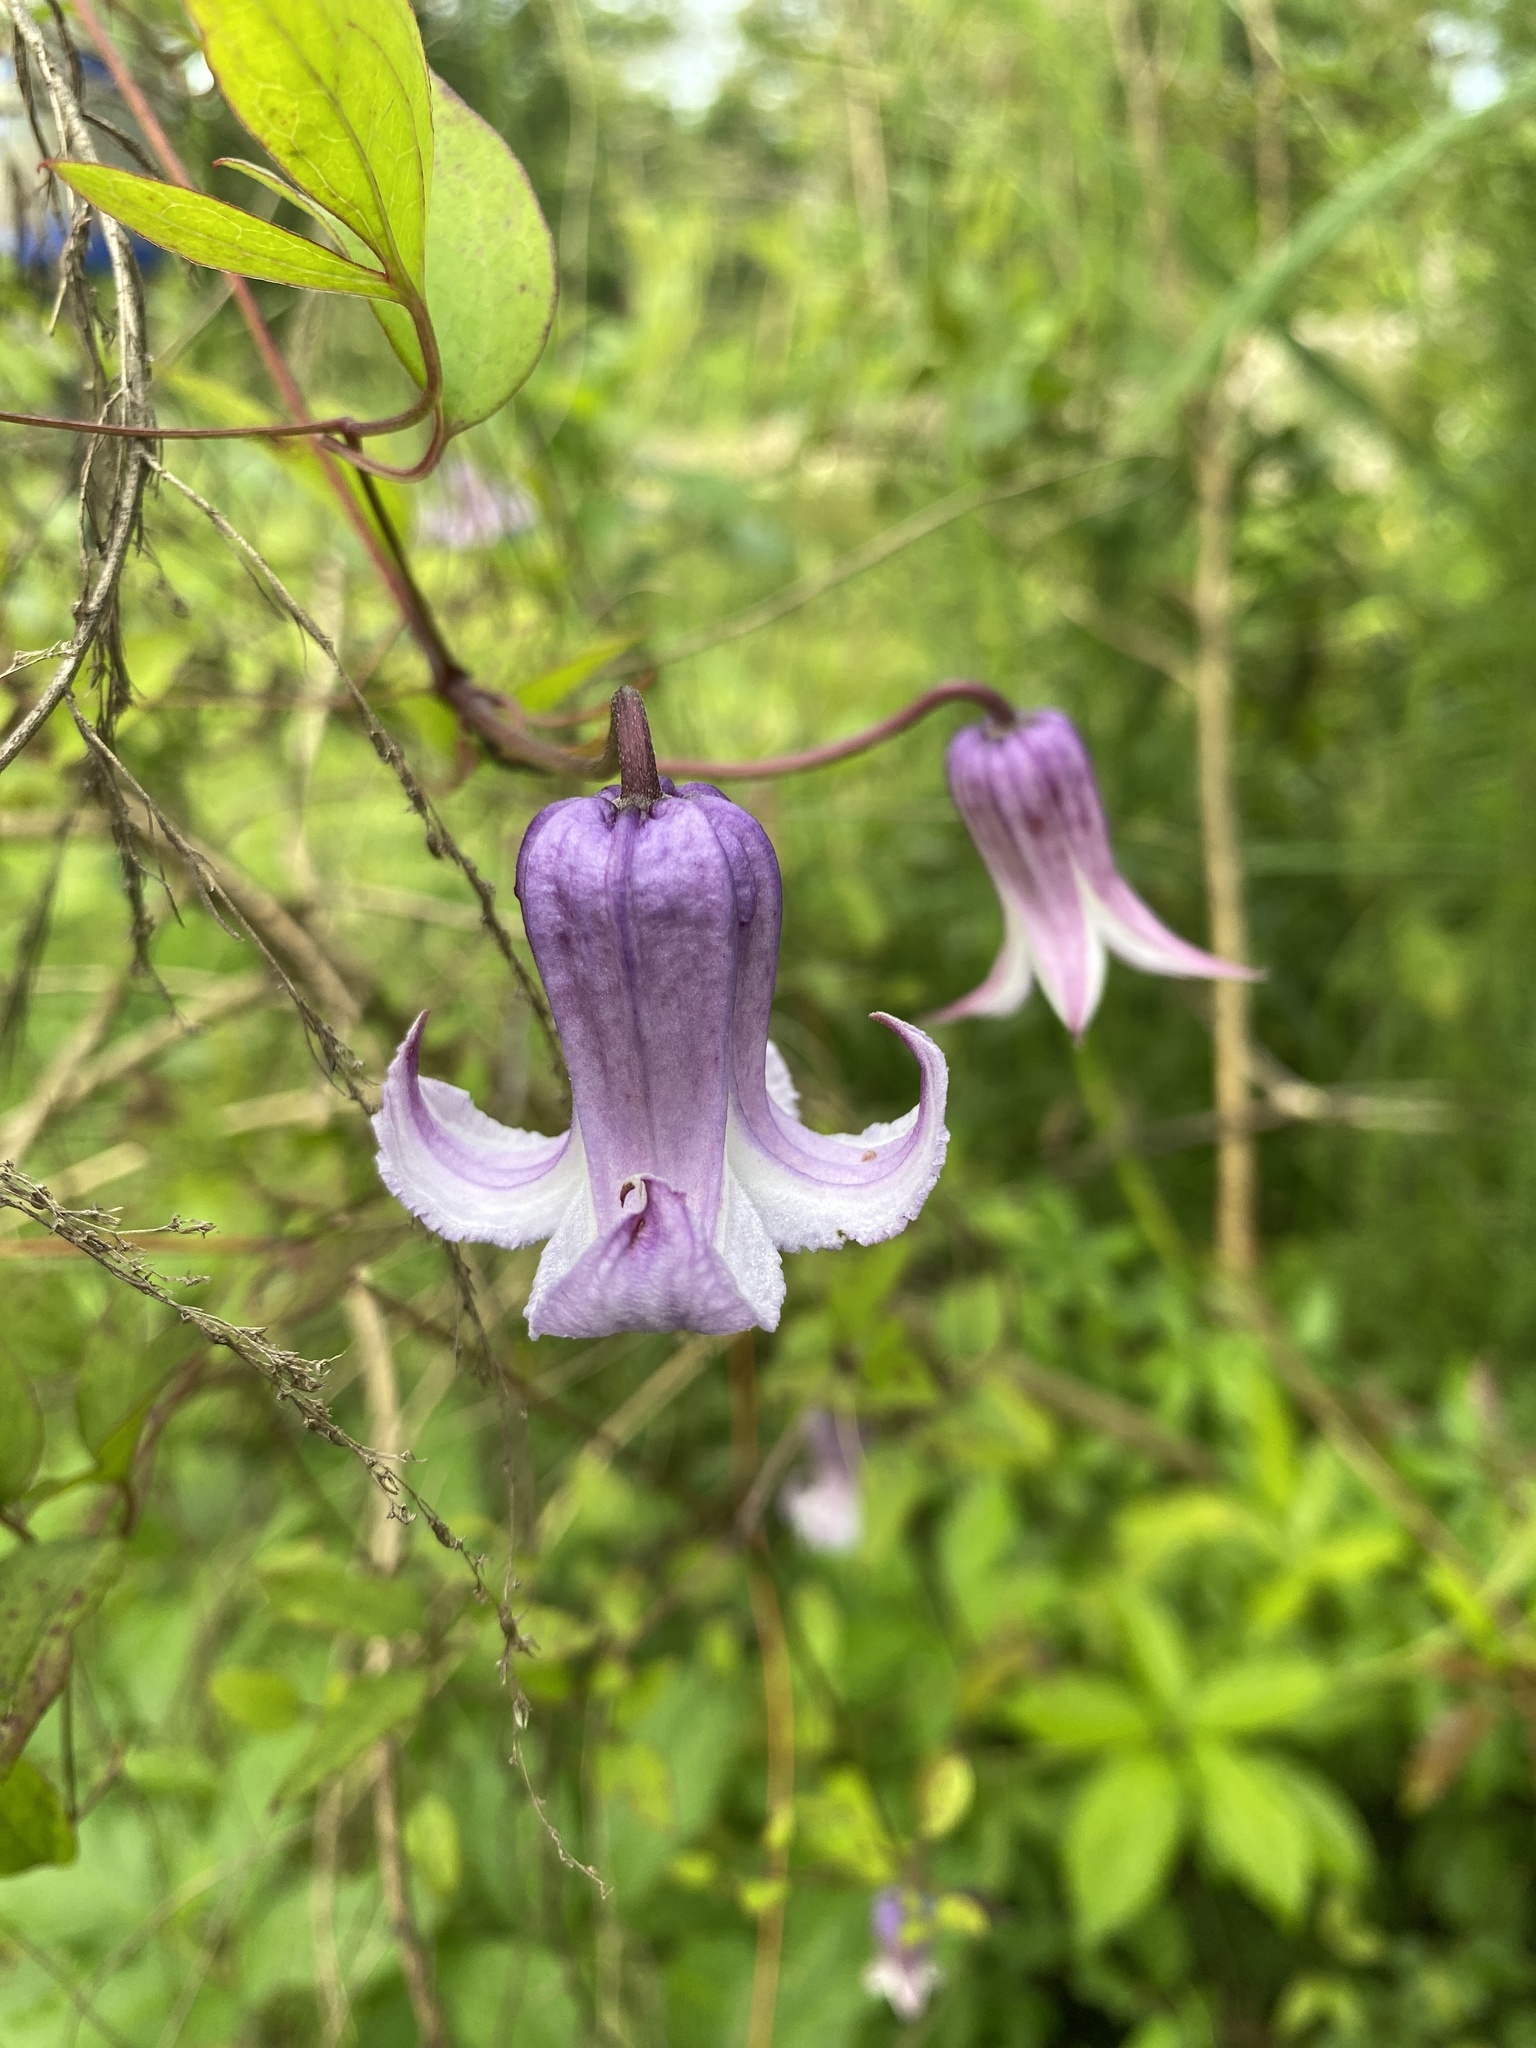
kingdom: Plantae
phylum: Tracheophyta
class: Magnoliopsida
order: Ranunculales
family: Ranunculaceae
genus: Clematis
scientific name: Clematis crispa
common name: Curly clematis
